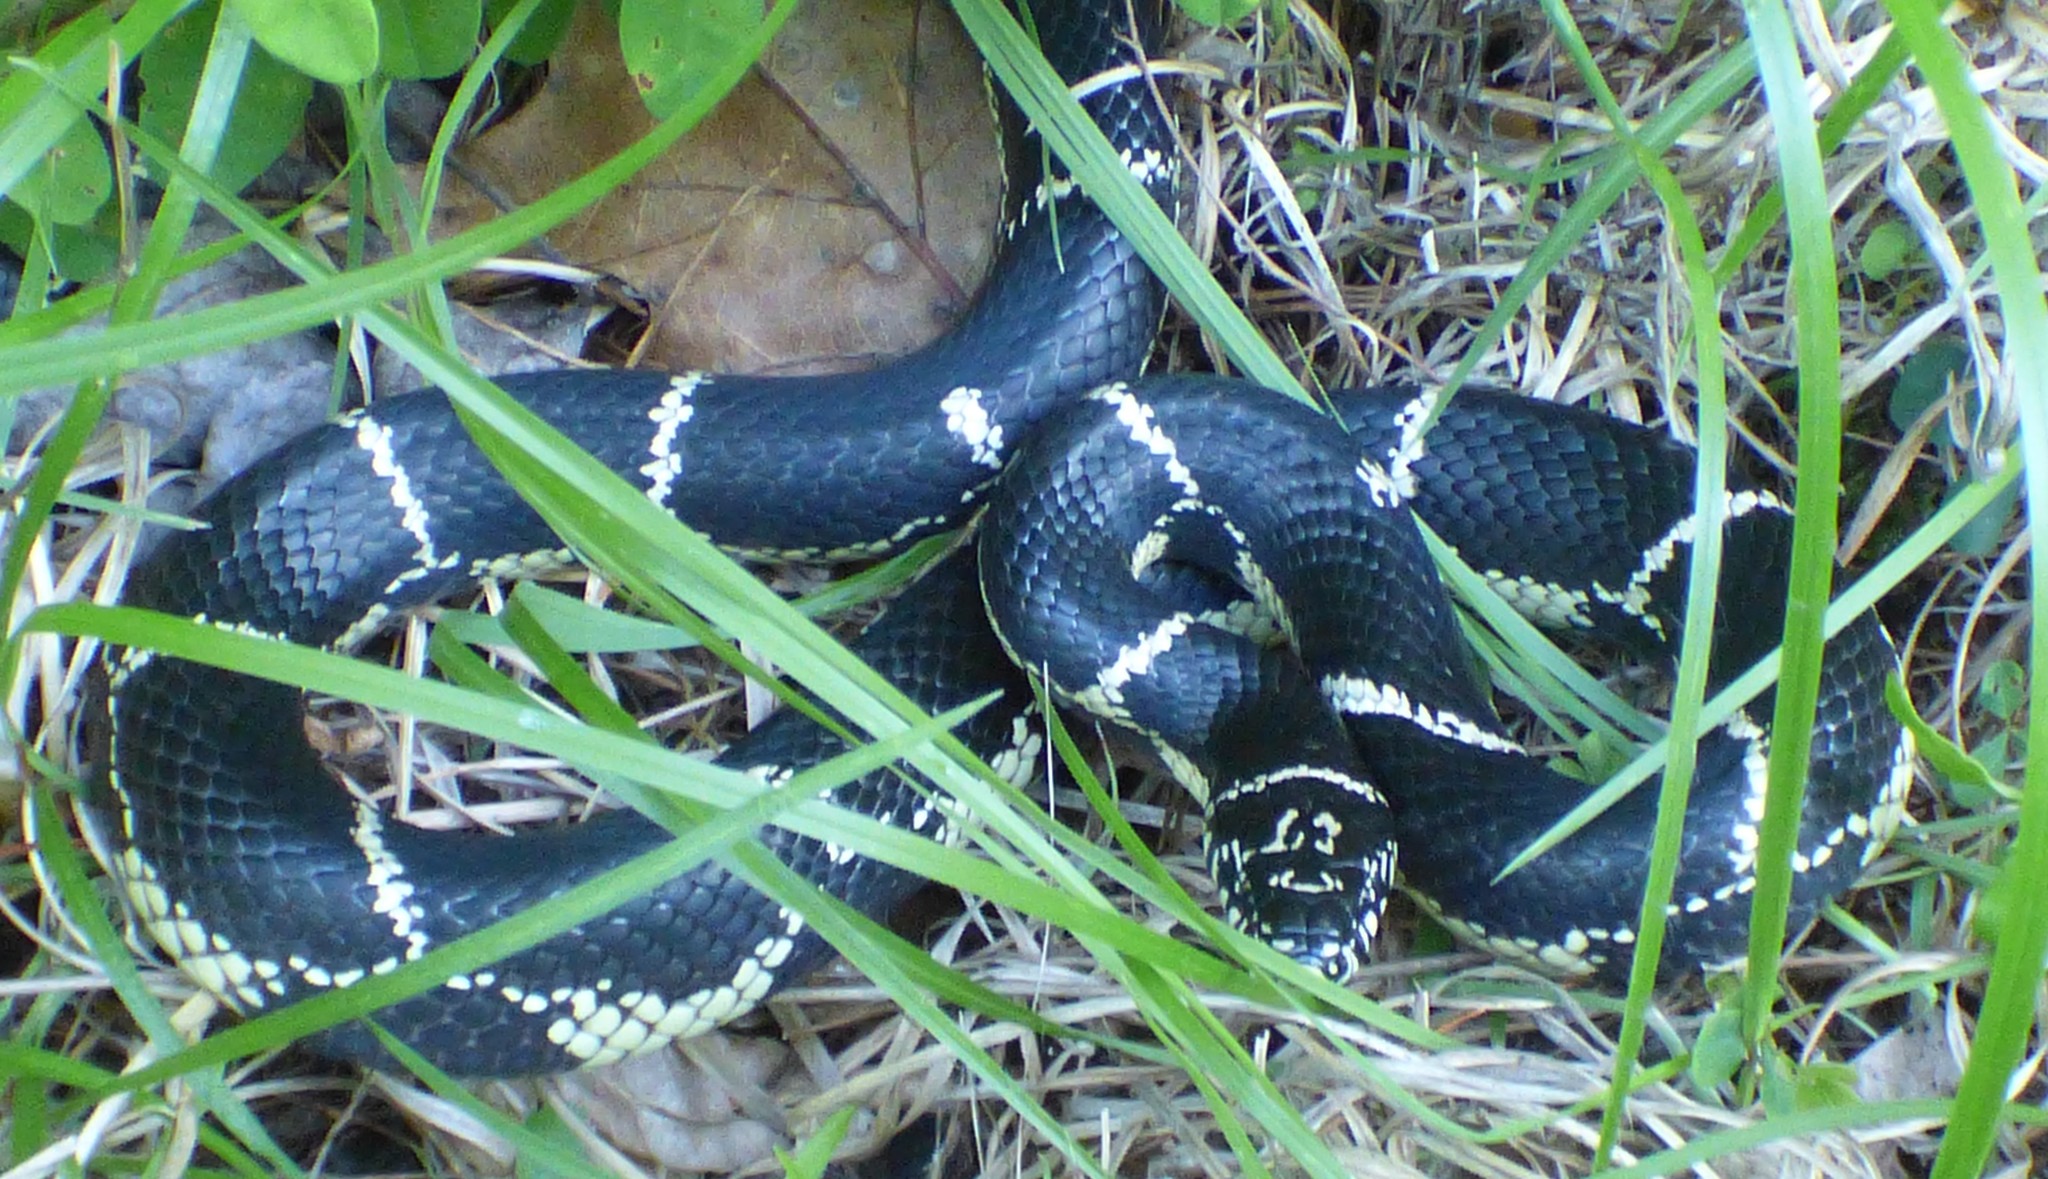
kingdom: Animalia
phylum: Chordata
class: Squamata
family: Colubridae
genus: Lampropeltis
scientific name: Lampropeltis getula
